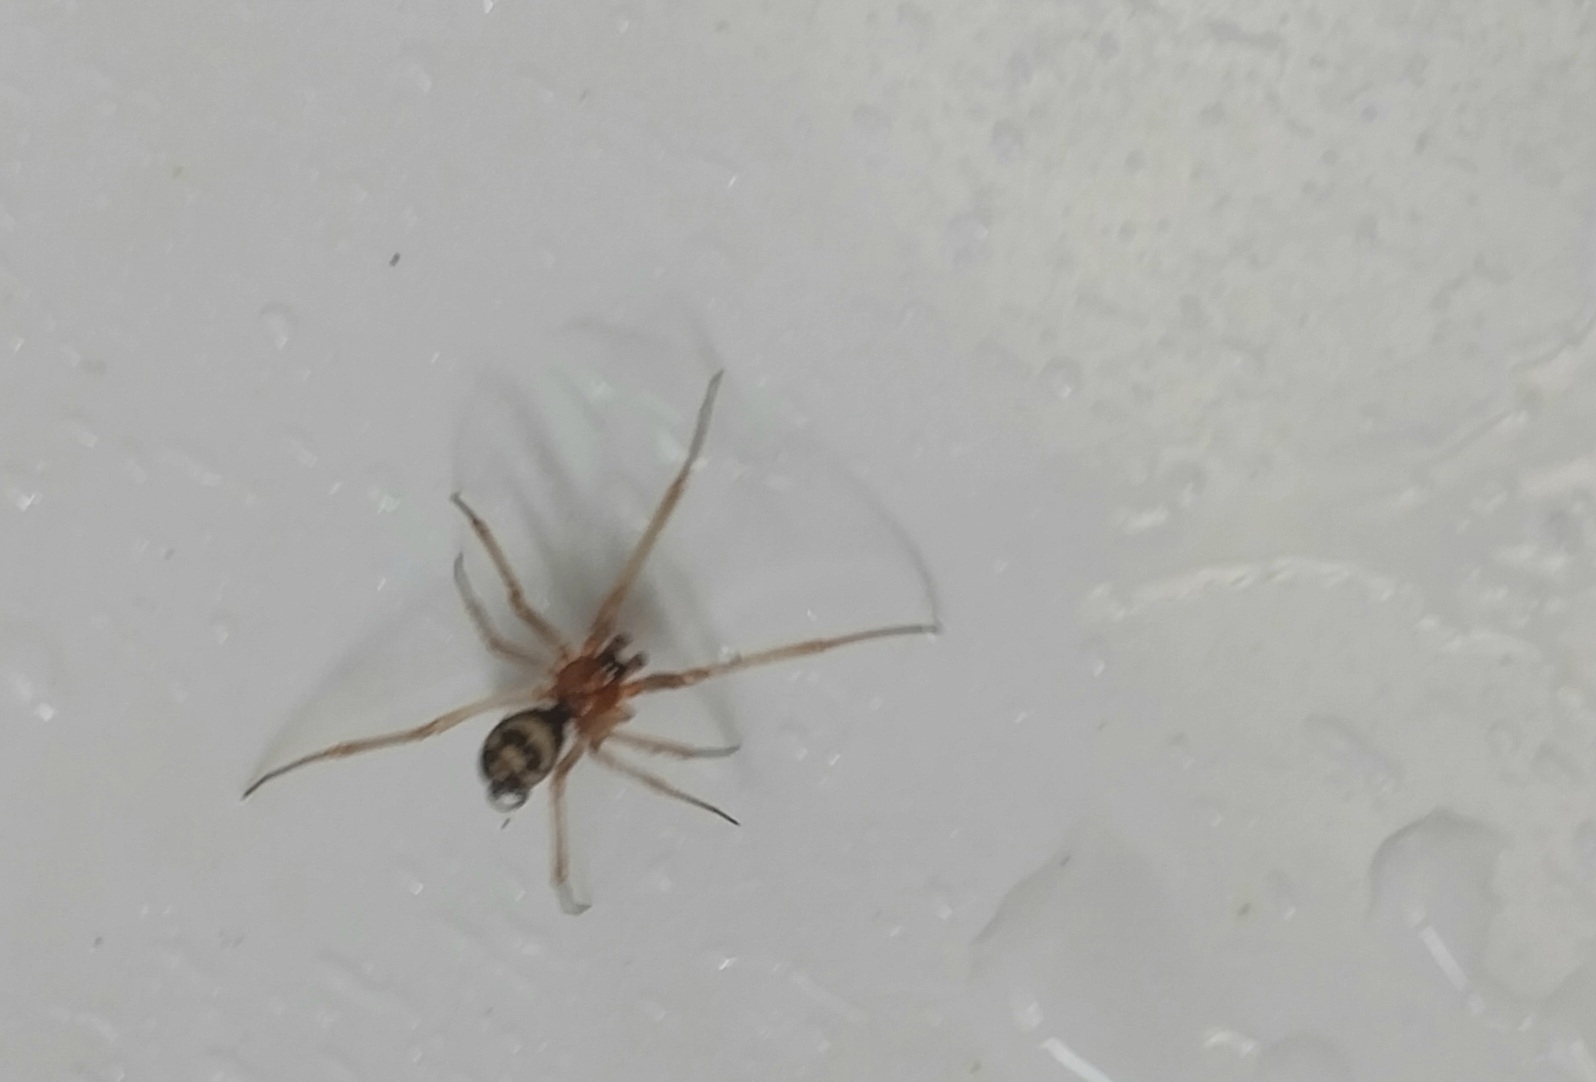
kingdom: Animalia
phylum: Arthropoda
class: Arachnida
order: Araneae
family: Theridiidae
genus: Steatoda
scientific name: Steatoda grossa
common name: False black widow
